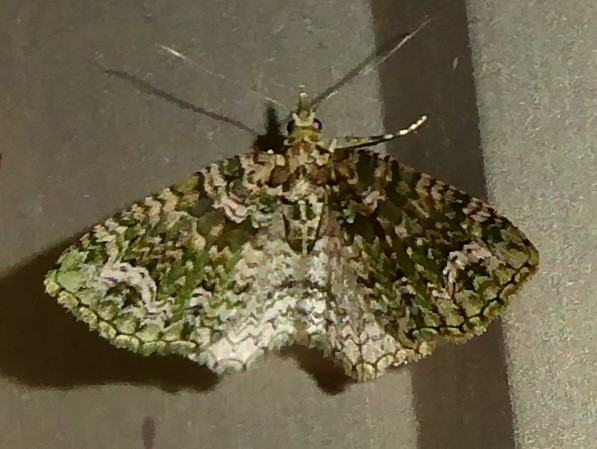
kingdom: Animalia
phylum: Arthropoda
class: Insecta
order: Lepidoptera
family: Geometridae
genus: Pasiphila
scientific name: Pasiphila muscosata
